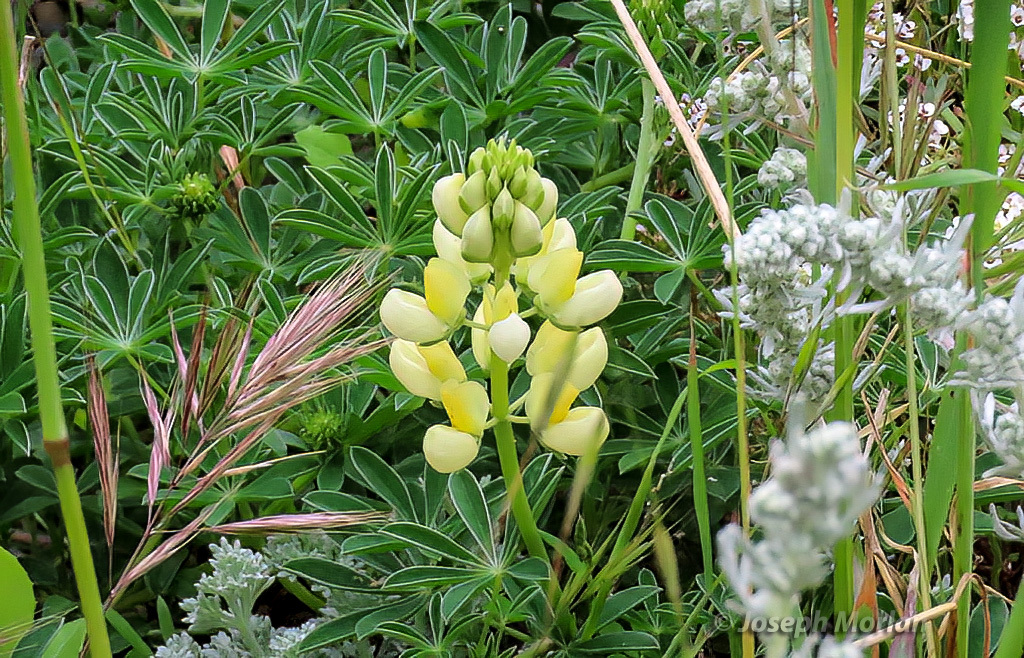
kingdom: Plantae
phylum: Tracheophyta
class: Magnoliopsida
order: Fabales
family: Fabaceae
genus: Lupinus
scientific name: Lupinus arboreus
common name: Yellow bush lupine
